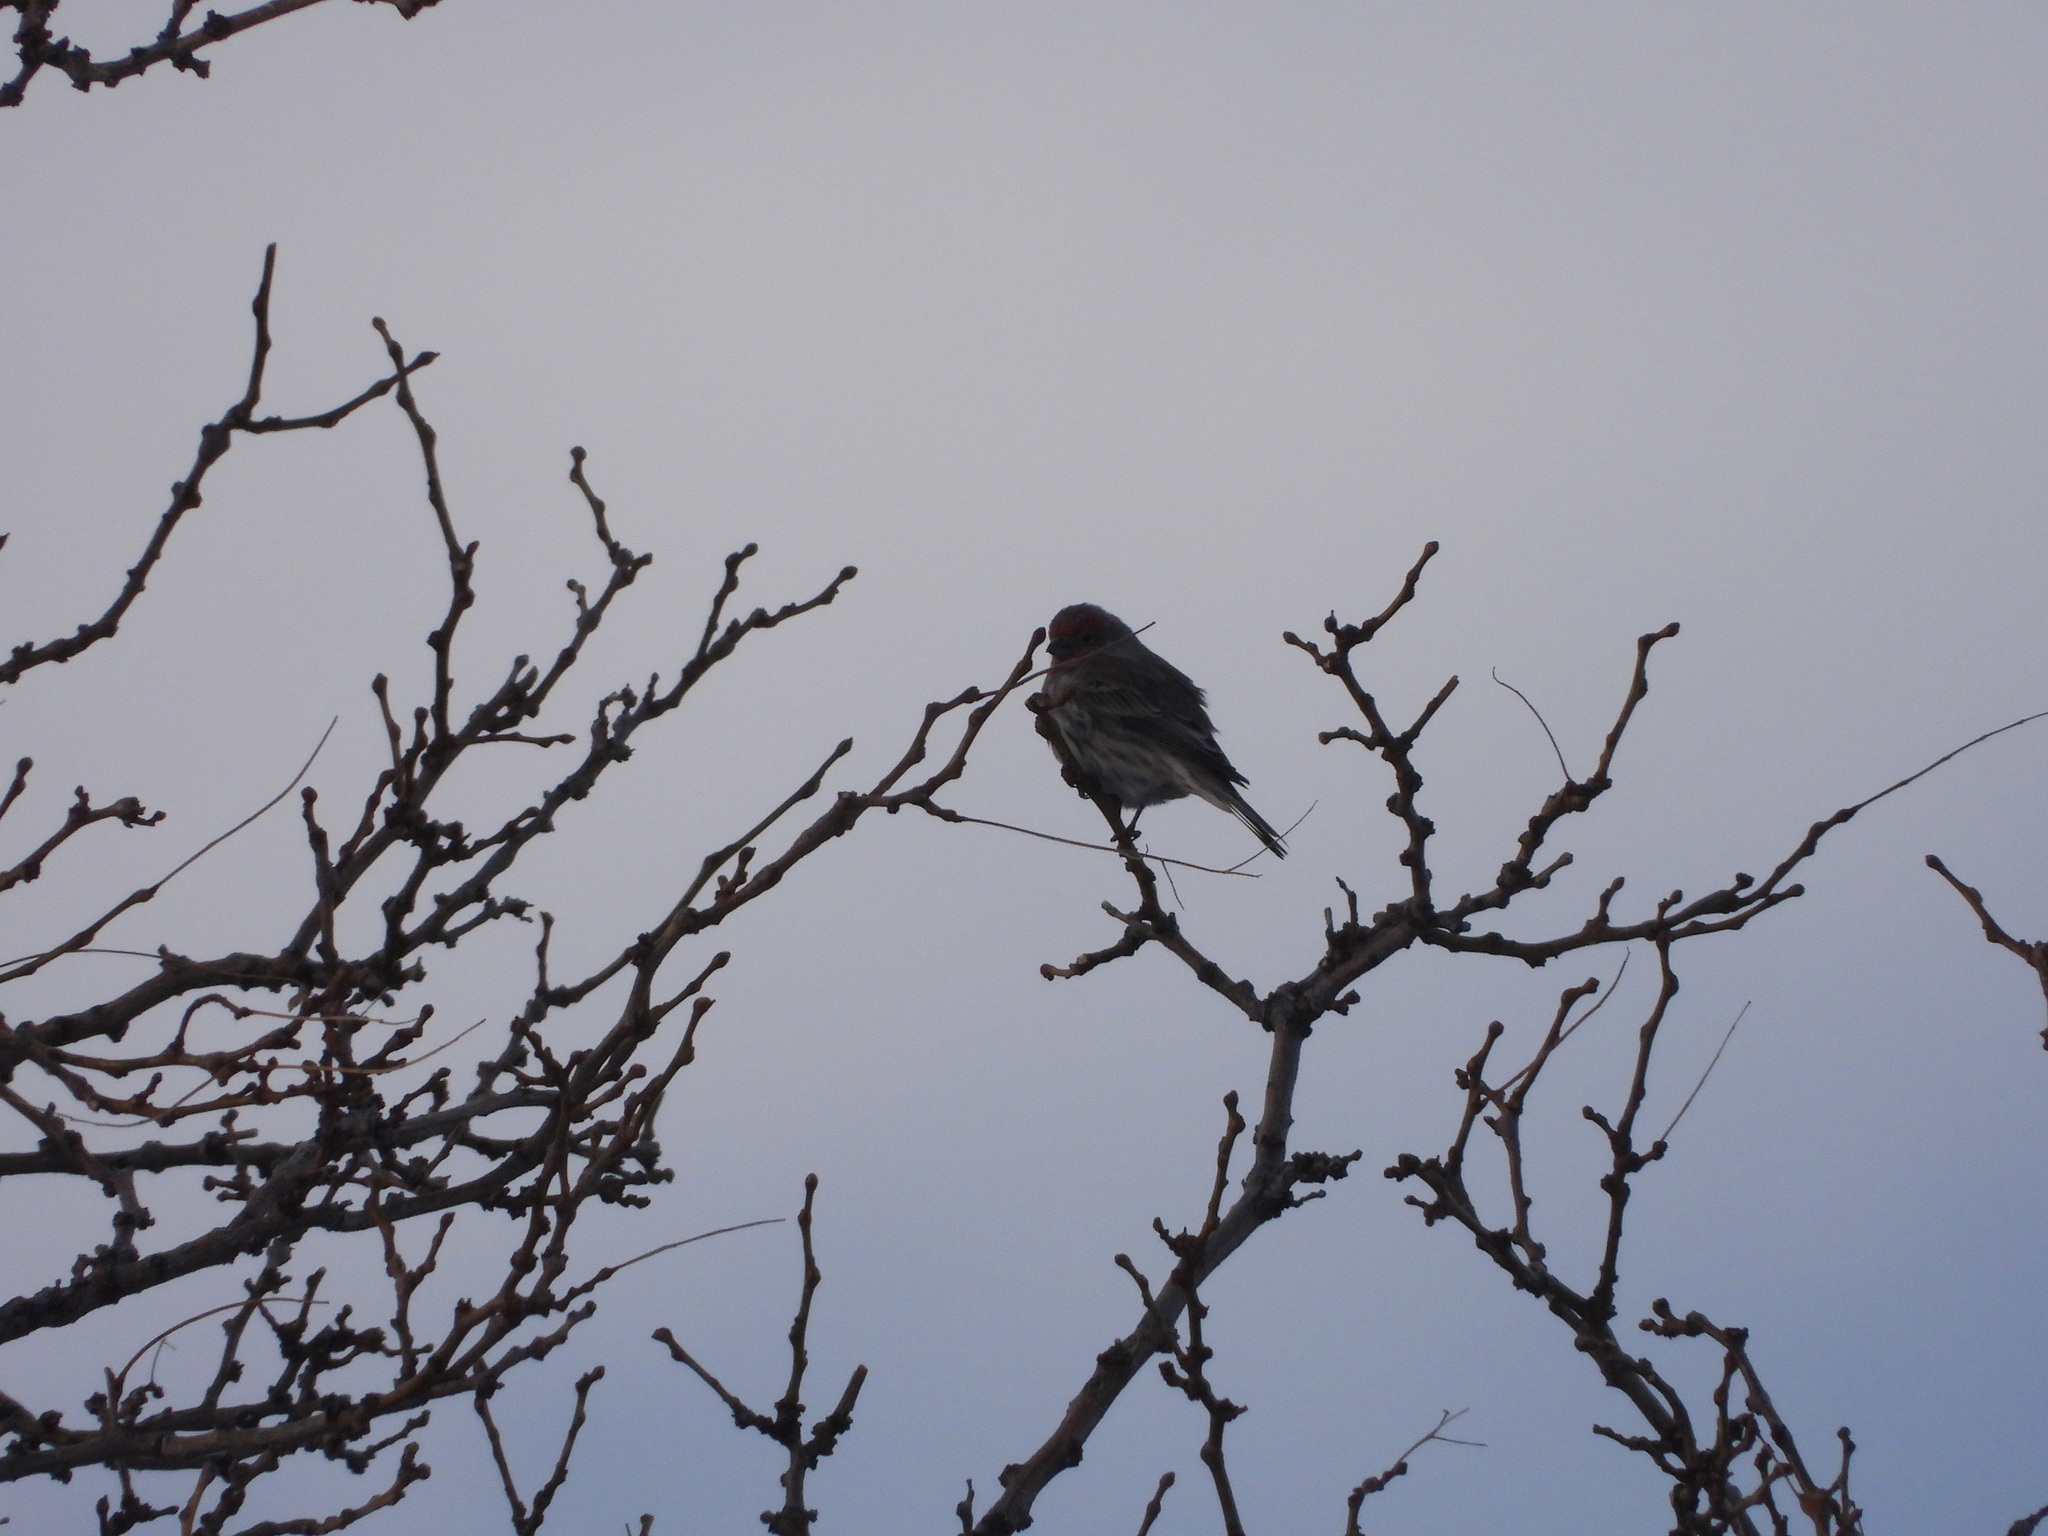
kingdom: Animalia
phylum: Chordata
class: Aves
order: Passeriformes
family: Fringillidae
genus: Haemorhous
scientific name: Haemorhous mexicanus
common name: House finch
